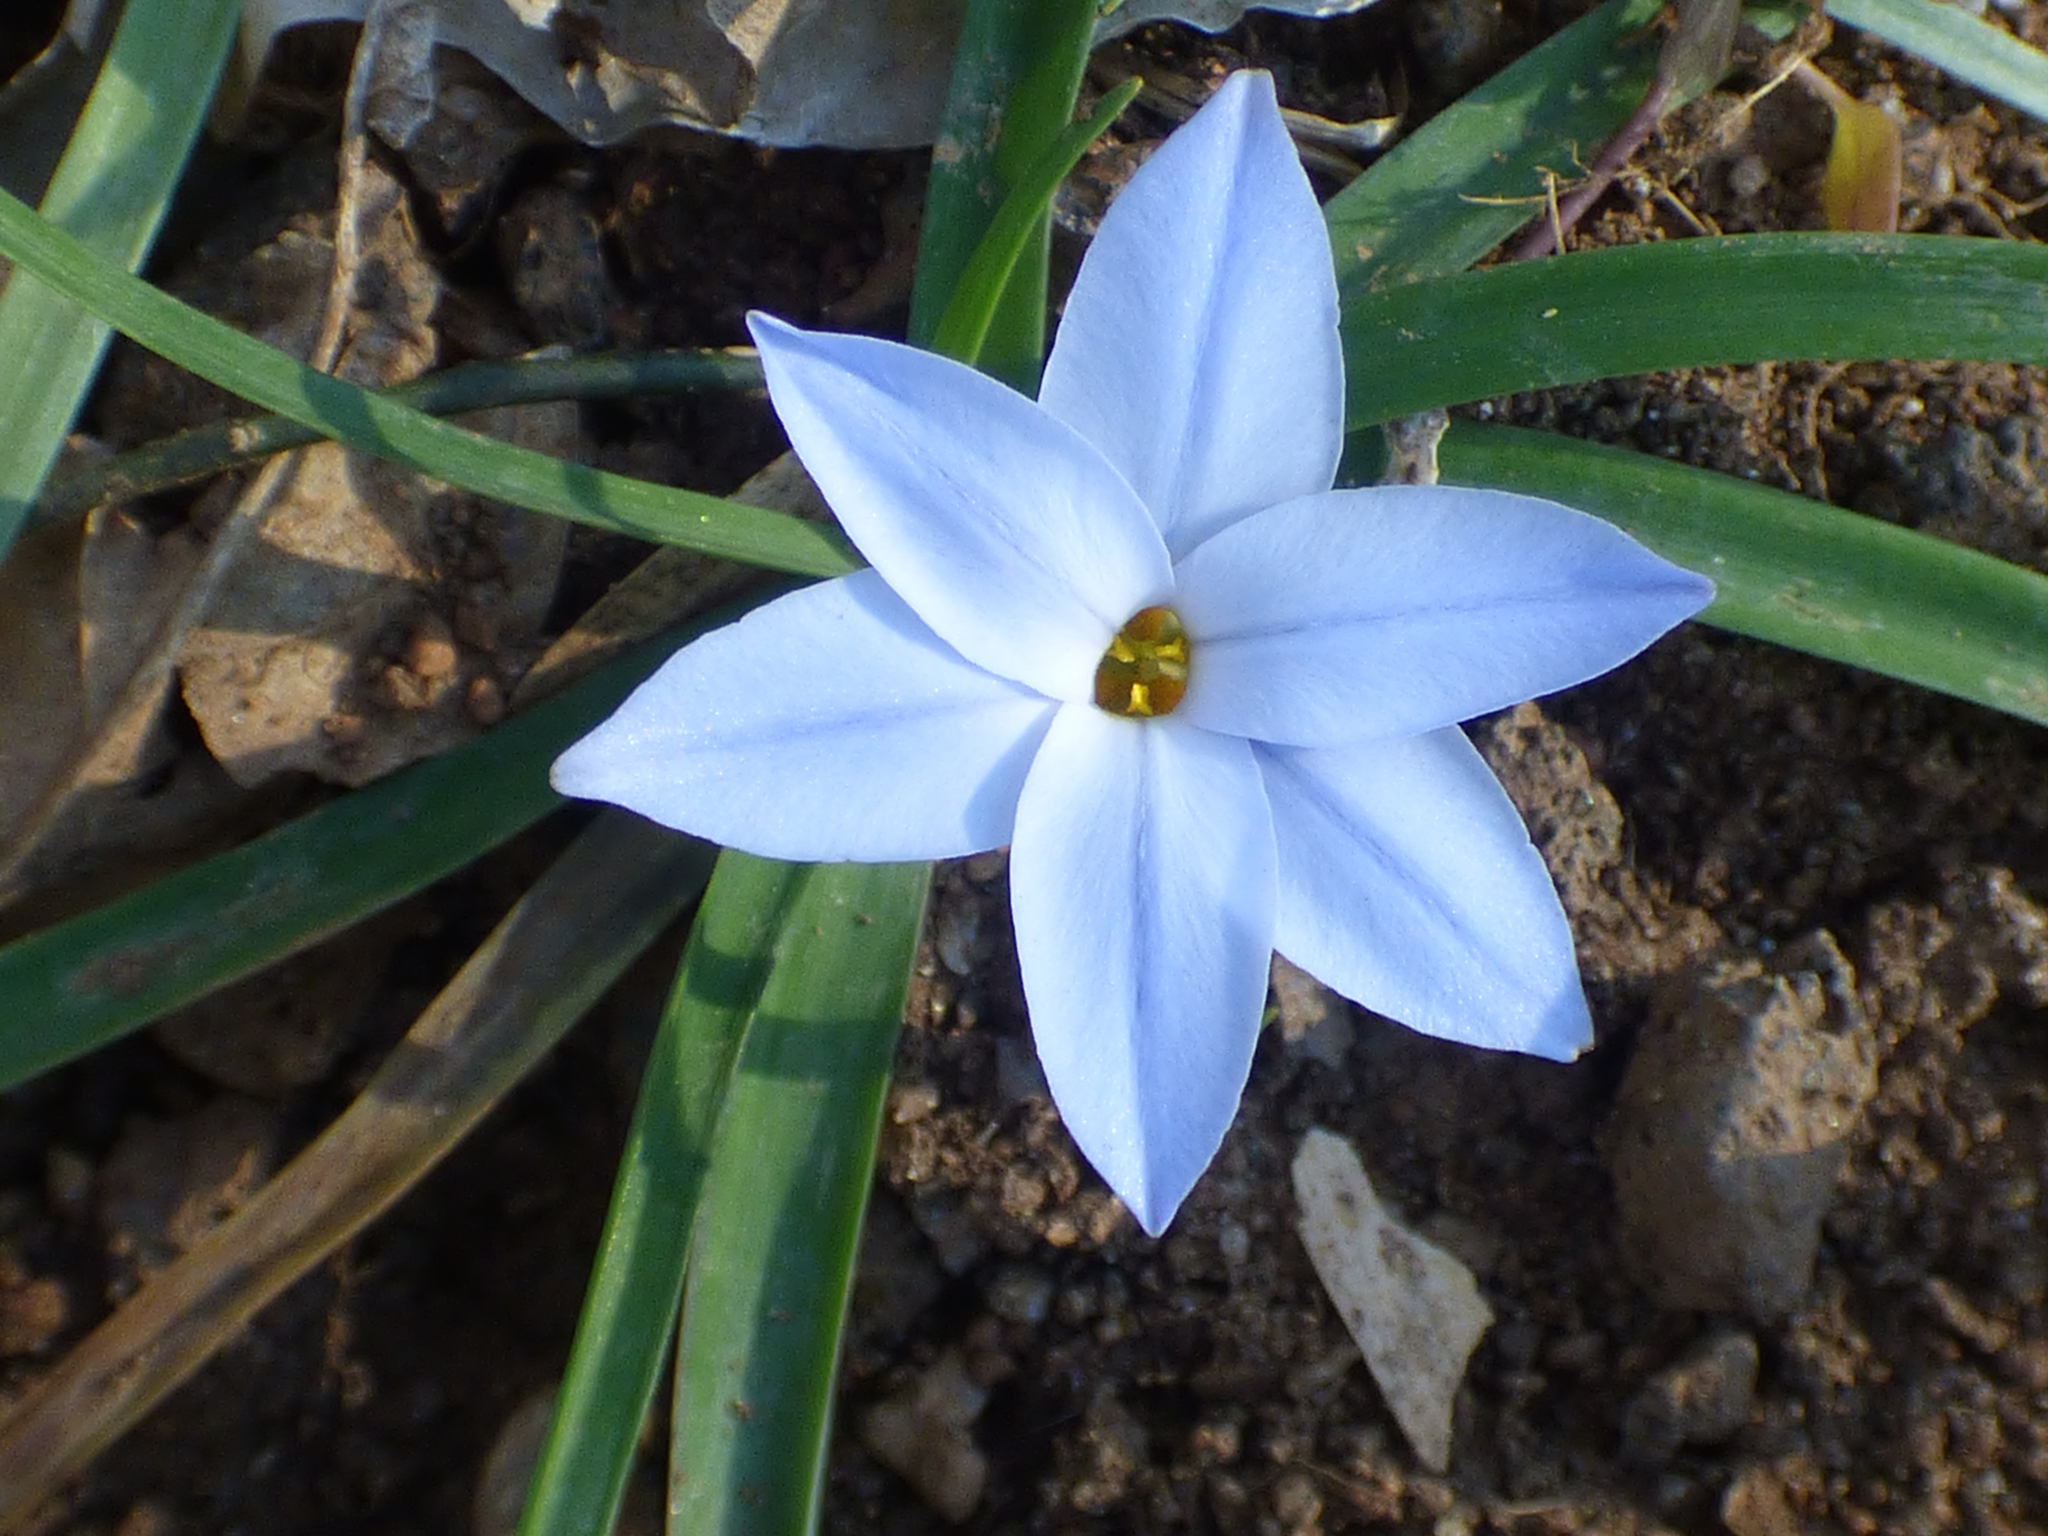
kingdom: Plantae
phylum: Tracheophyta
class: Liliopsida
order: Asparagales
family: Amaryllidaceae
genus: Ipheion
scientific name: Ipheion uniflorum
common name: Spring starflower
